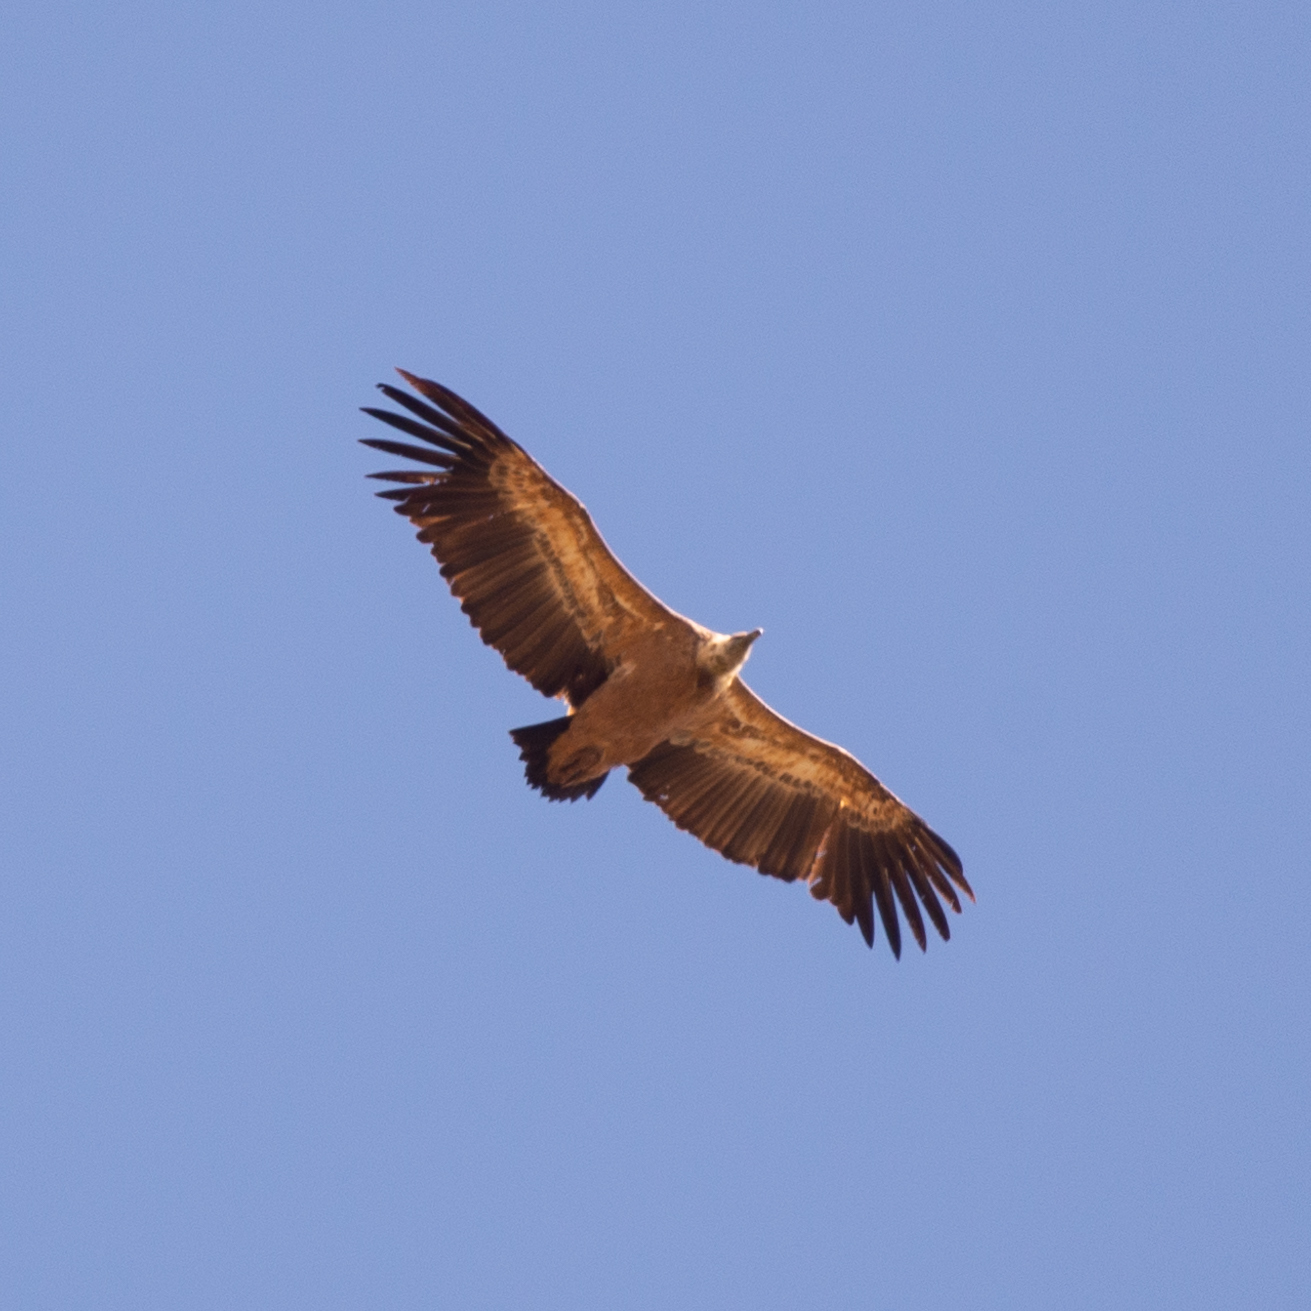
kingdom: Animalia
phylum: Chordata
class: Aves
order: Accipitriformes
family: Accipitridae
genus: Gyps
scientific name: Gyps fulvus
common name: Griffon vulture
